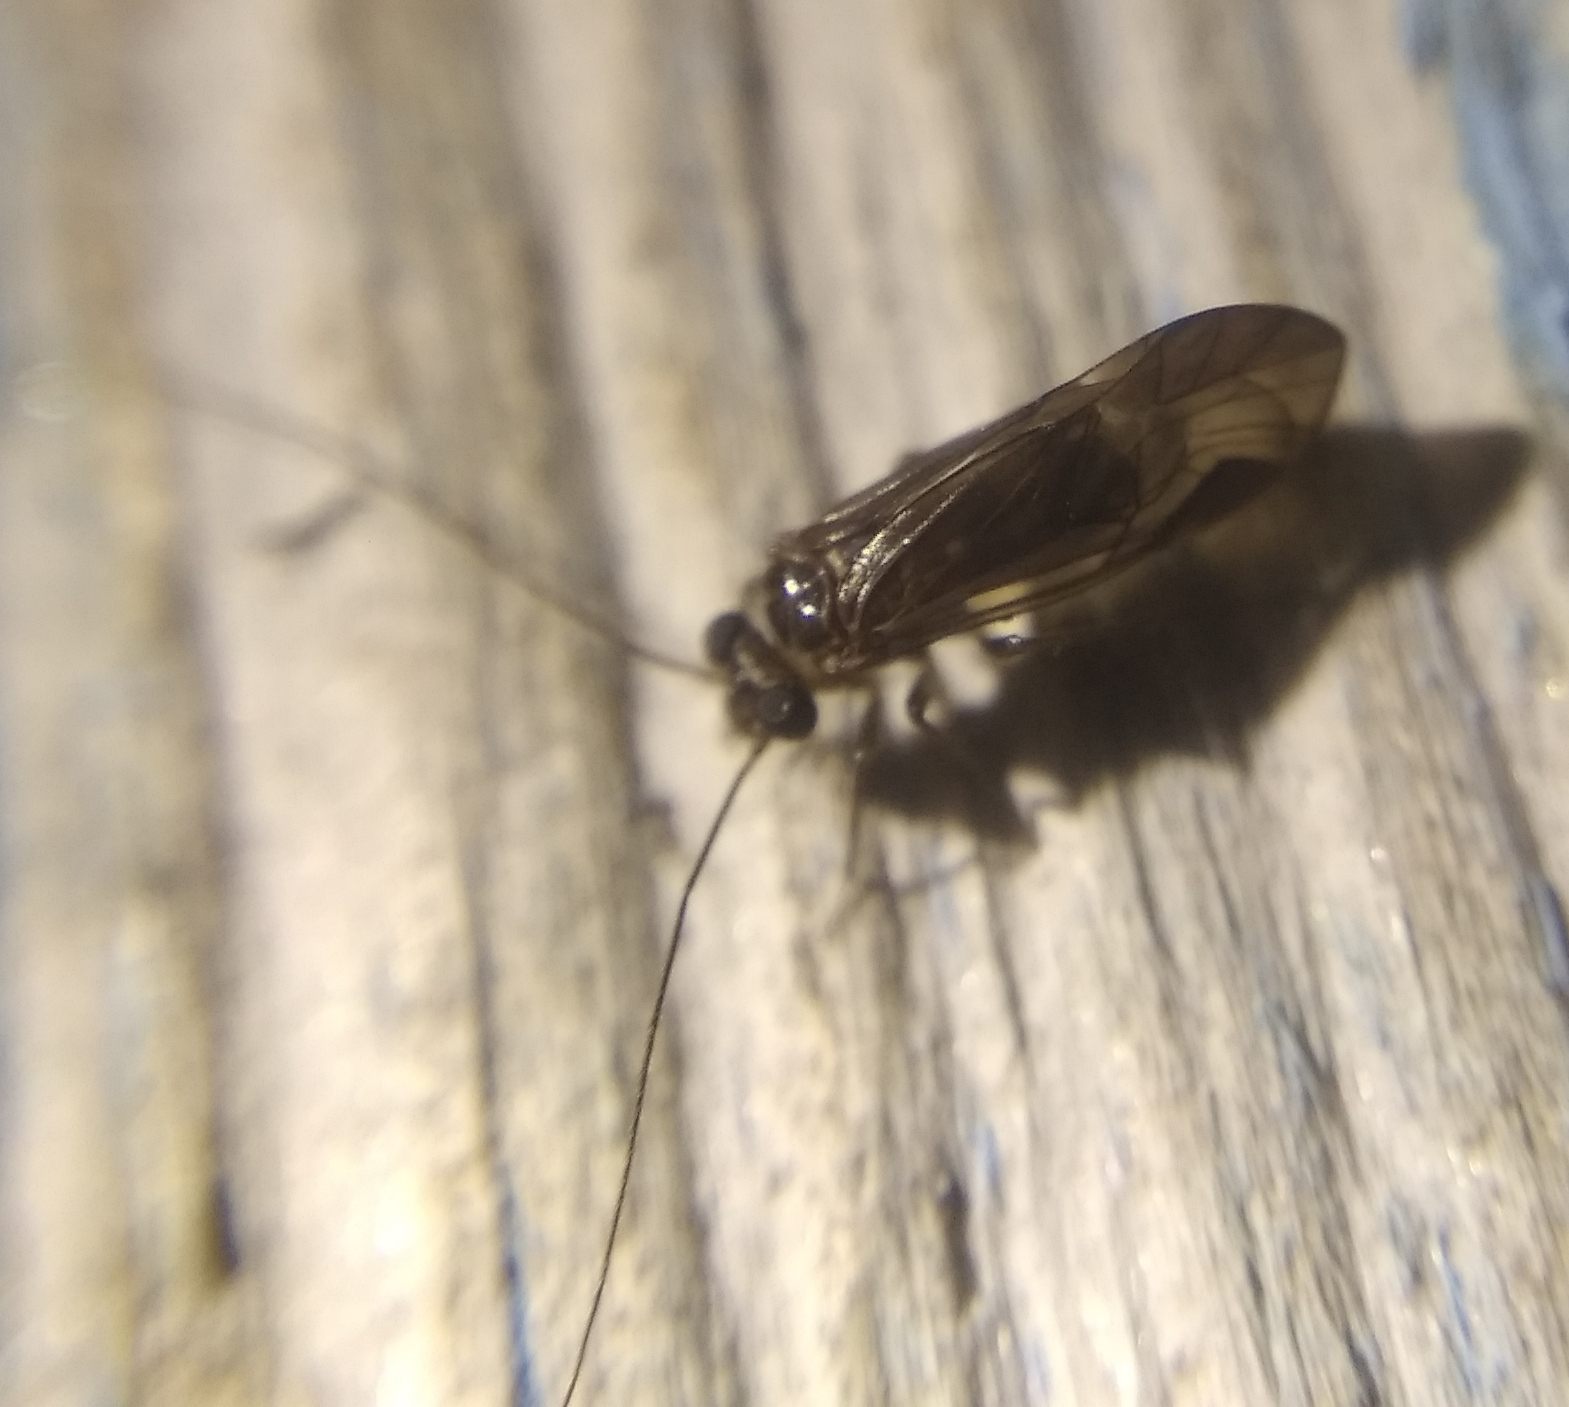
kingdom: Animalia
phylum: Arthropoda
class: Insecta
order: Psocodea
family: Psocidae
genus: Metylophorus
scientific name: Metylophorus nebulosus
